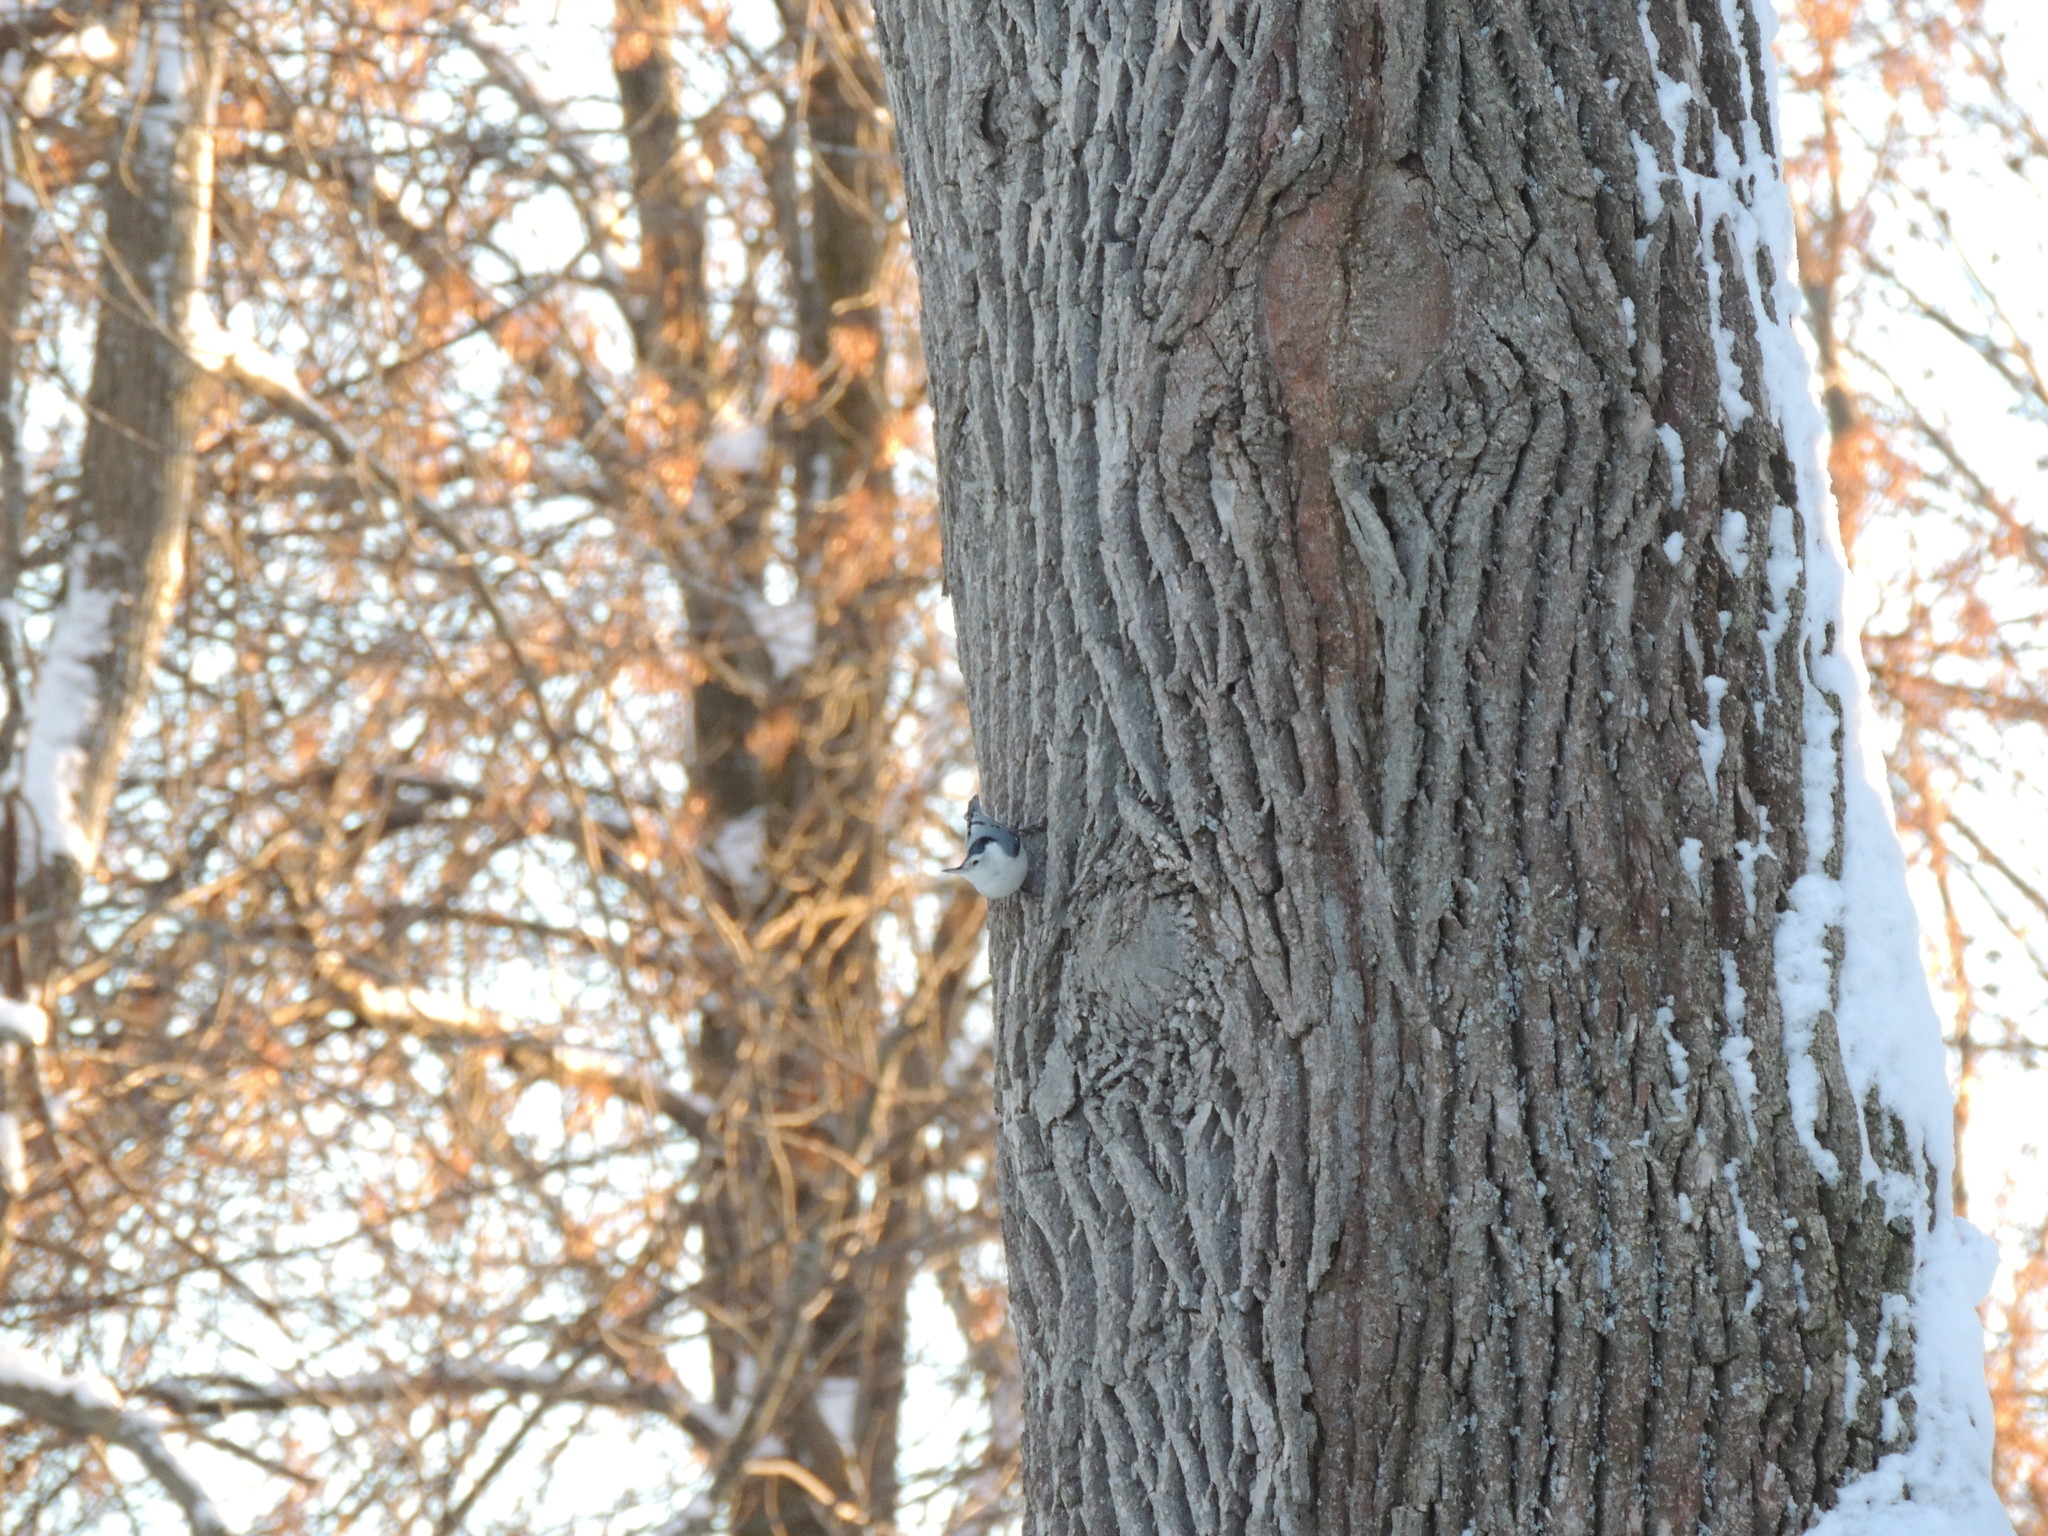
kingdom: Animalia
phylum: Chordata
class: Aves
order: Passeriformes
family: Sittidae
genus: Sitta
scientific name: Sitta carolinensis
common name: White-breasted nuthatch
